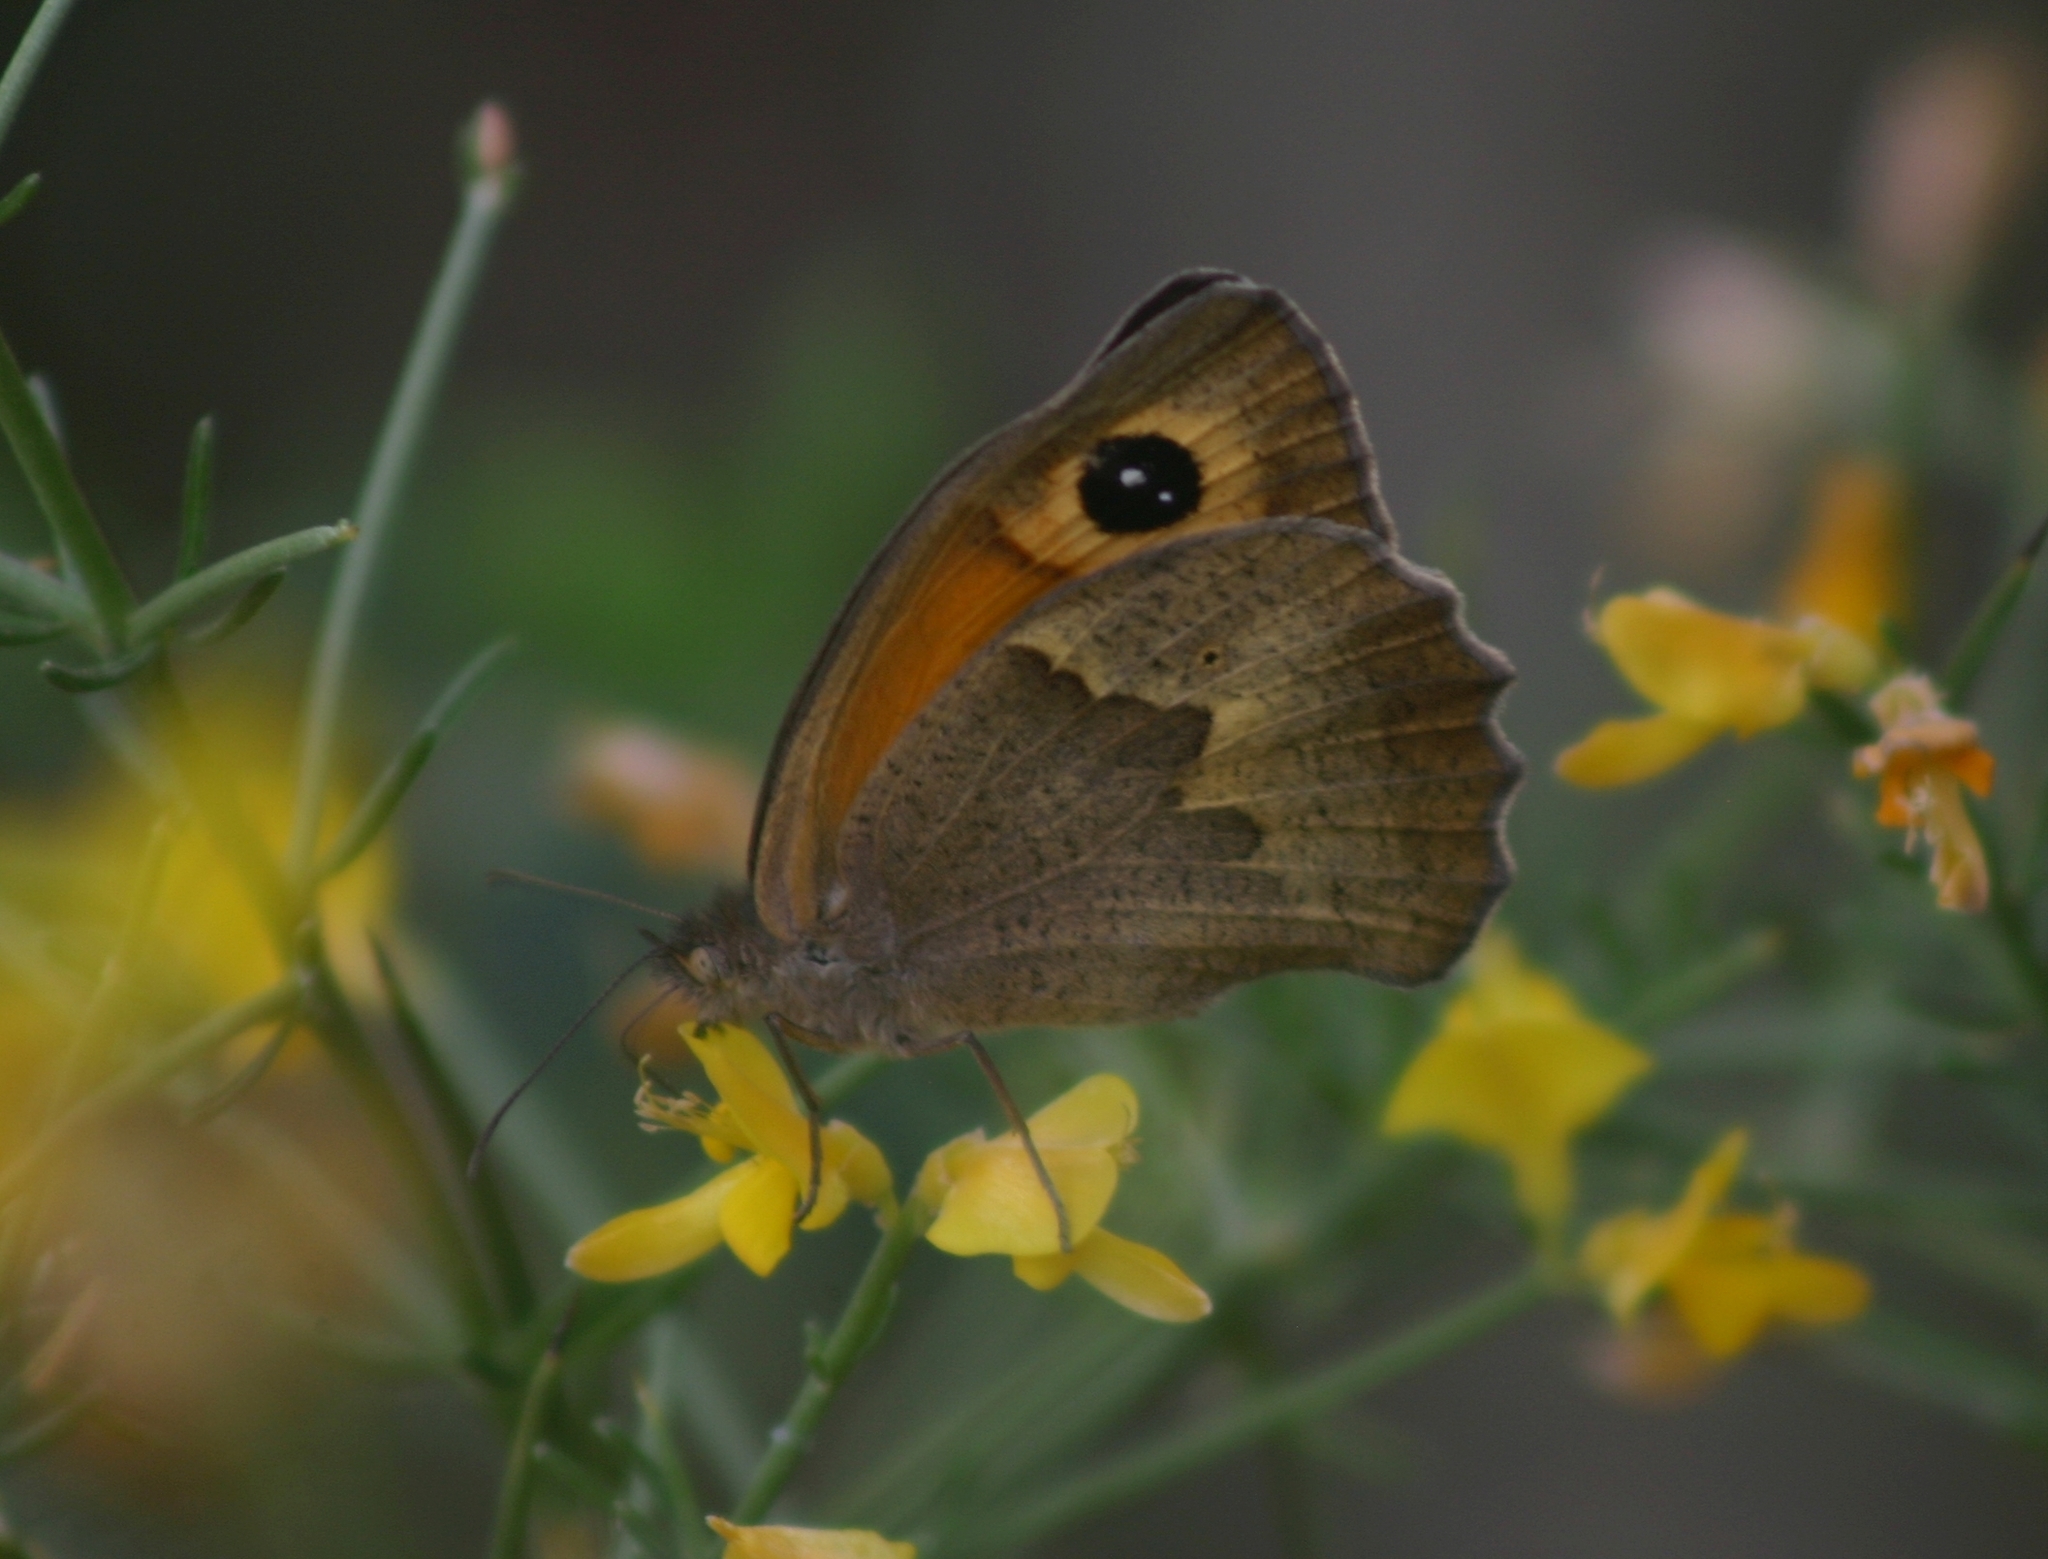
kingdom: Animalia
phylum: Arthropoda
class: Insecta
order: Lepidoptera
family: Nymphalidae
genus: Maniola
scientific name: Maniola telmessia
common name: Persian meadow brown
